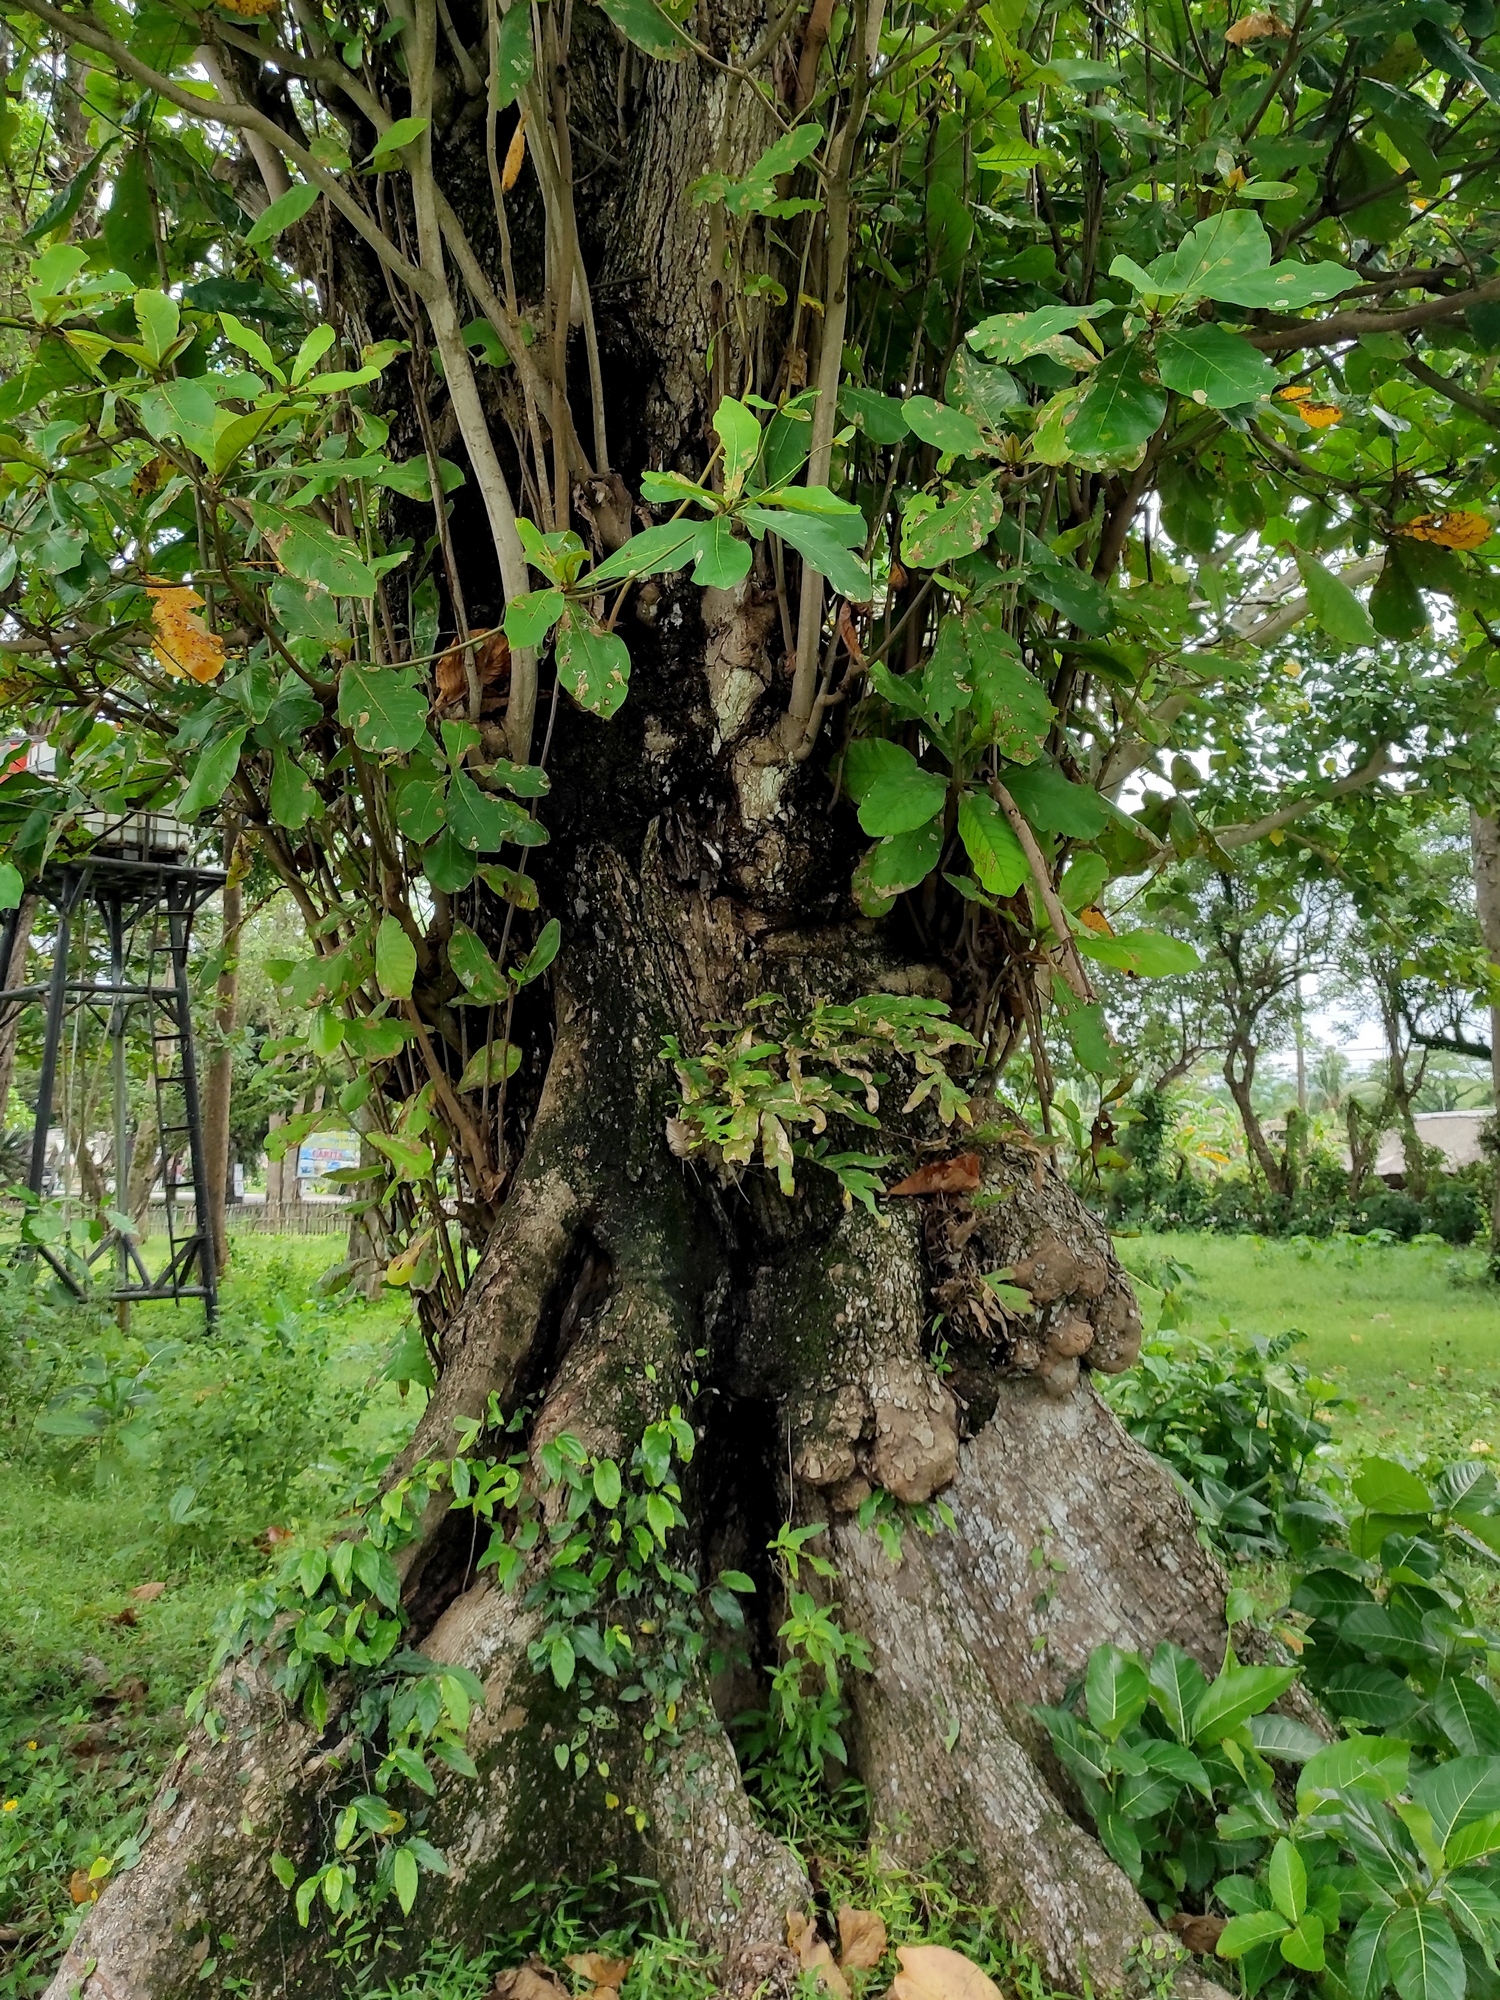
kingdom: Plantae
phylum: Tracheophyta
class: Magnoliopsida
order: Myrtales
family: Combretaceae
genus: Terminalia
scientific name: Terminalia catappa
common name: Tropical almond
